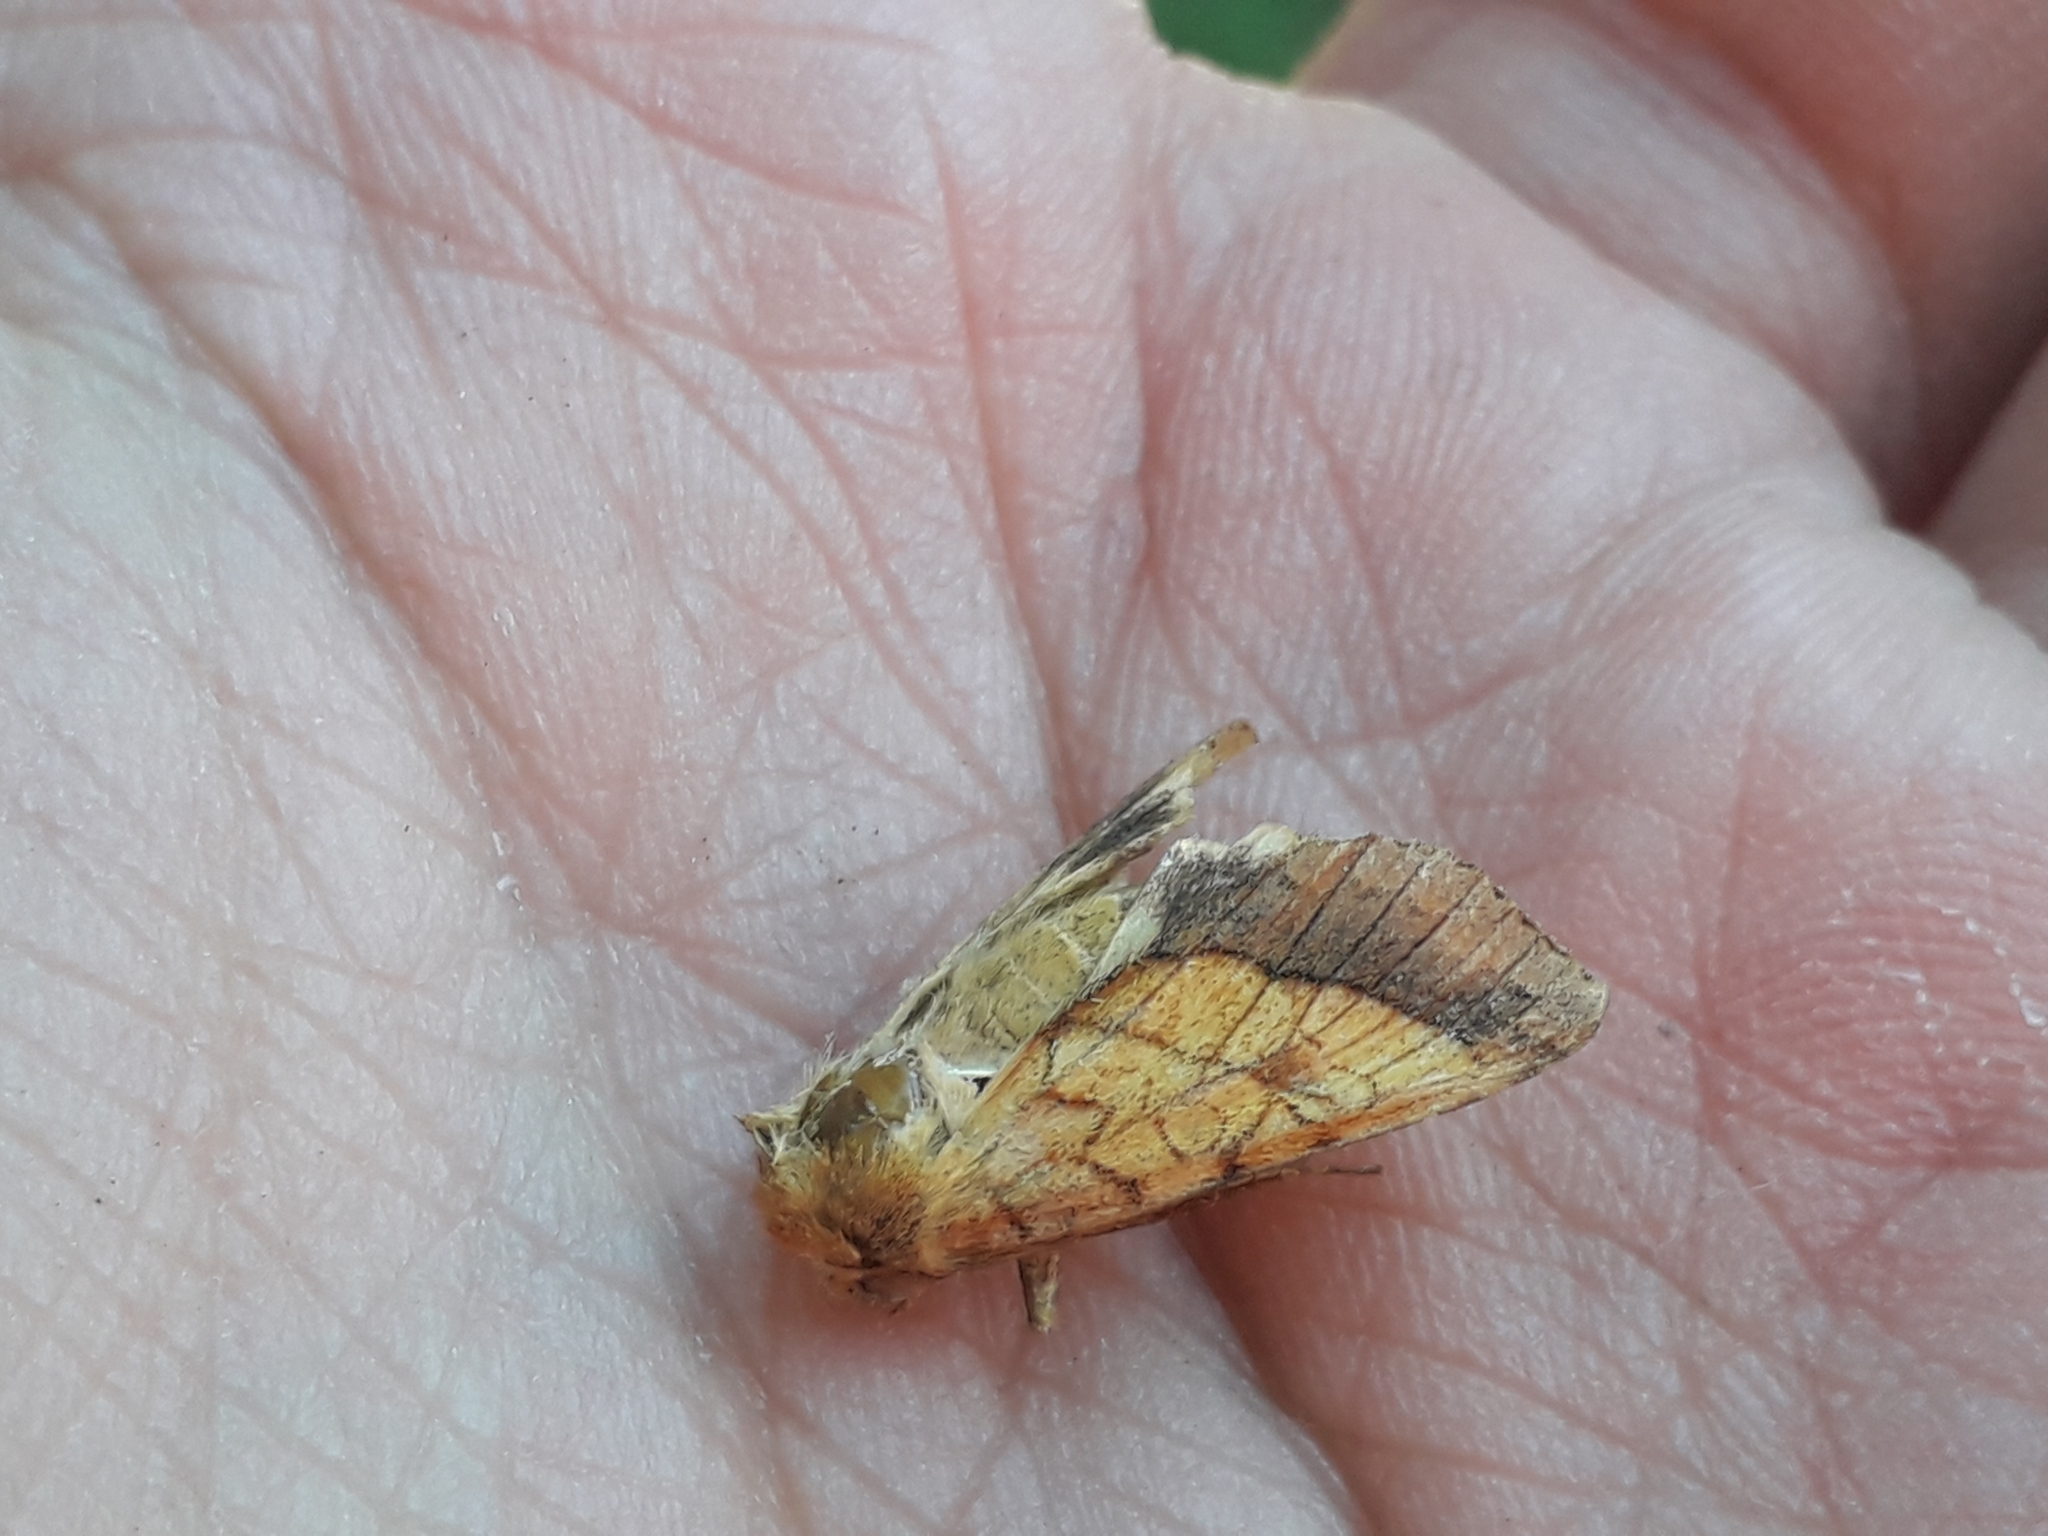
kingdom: Animalia
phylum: Arthropoda
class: Insecta
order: Lepidoptera
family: Noctuidae
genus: Pyrrhia
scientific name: Pyrrhia umbra
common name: Bordered sallow
